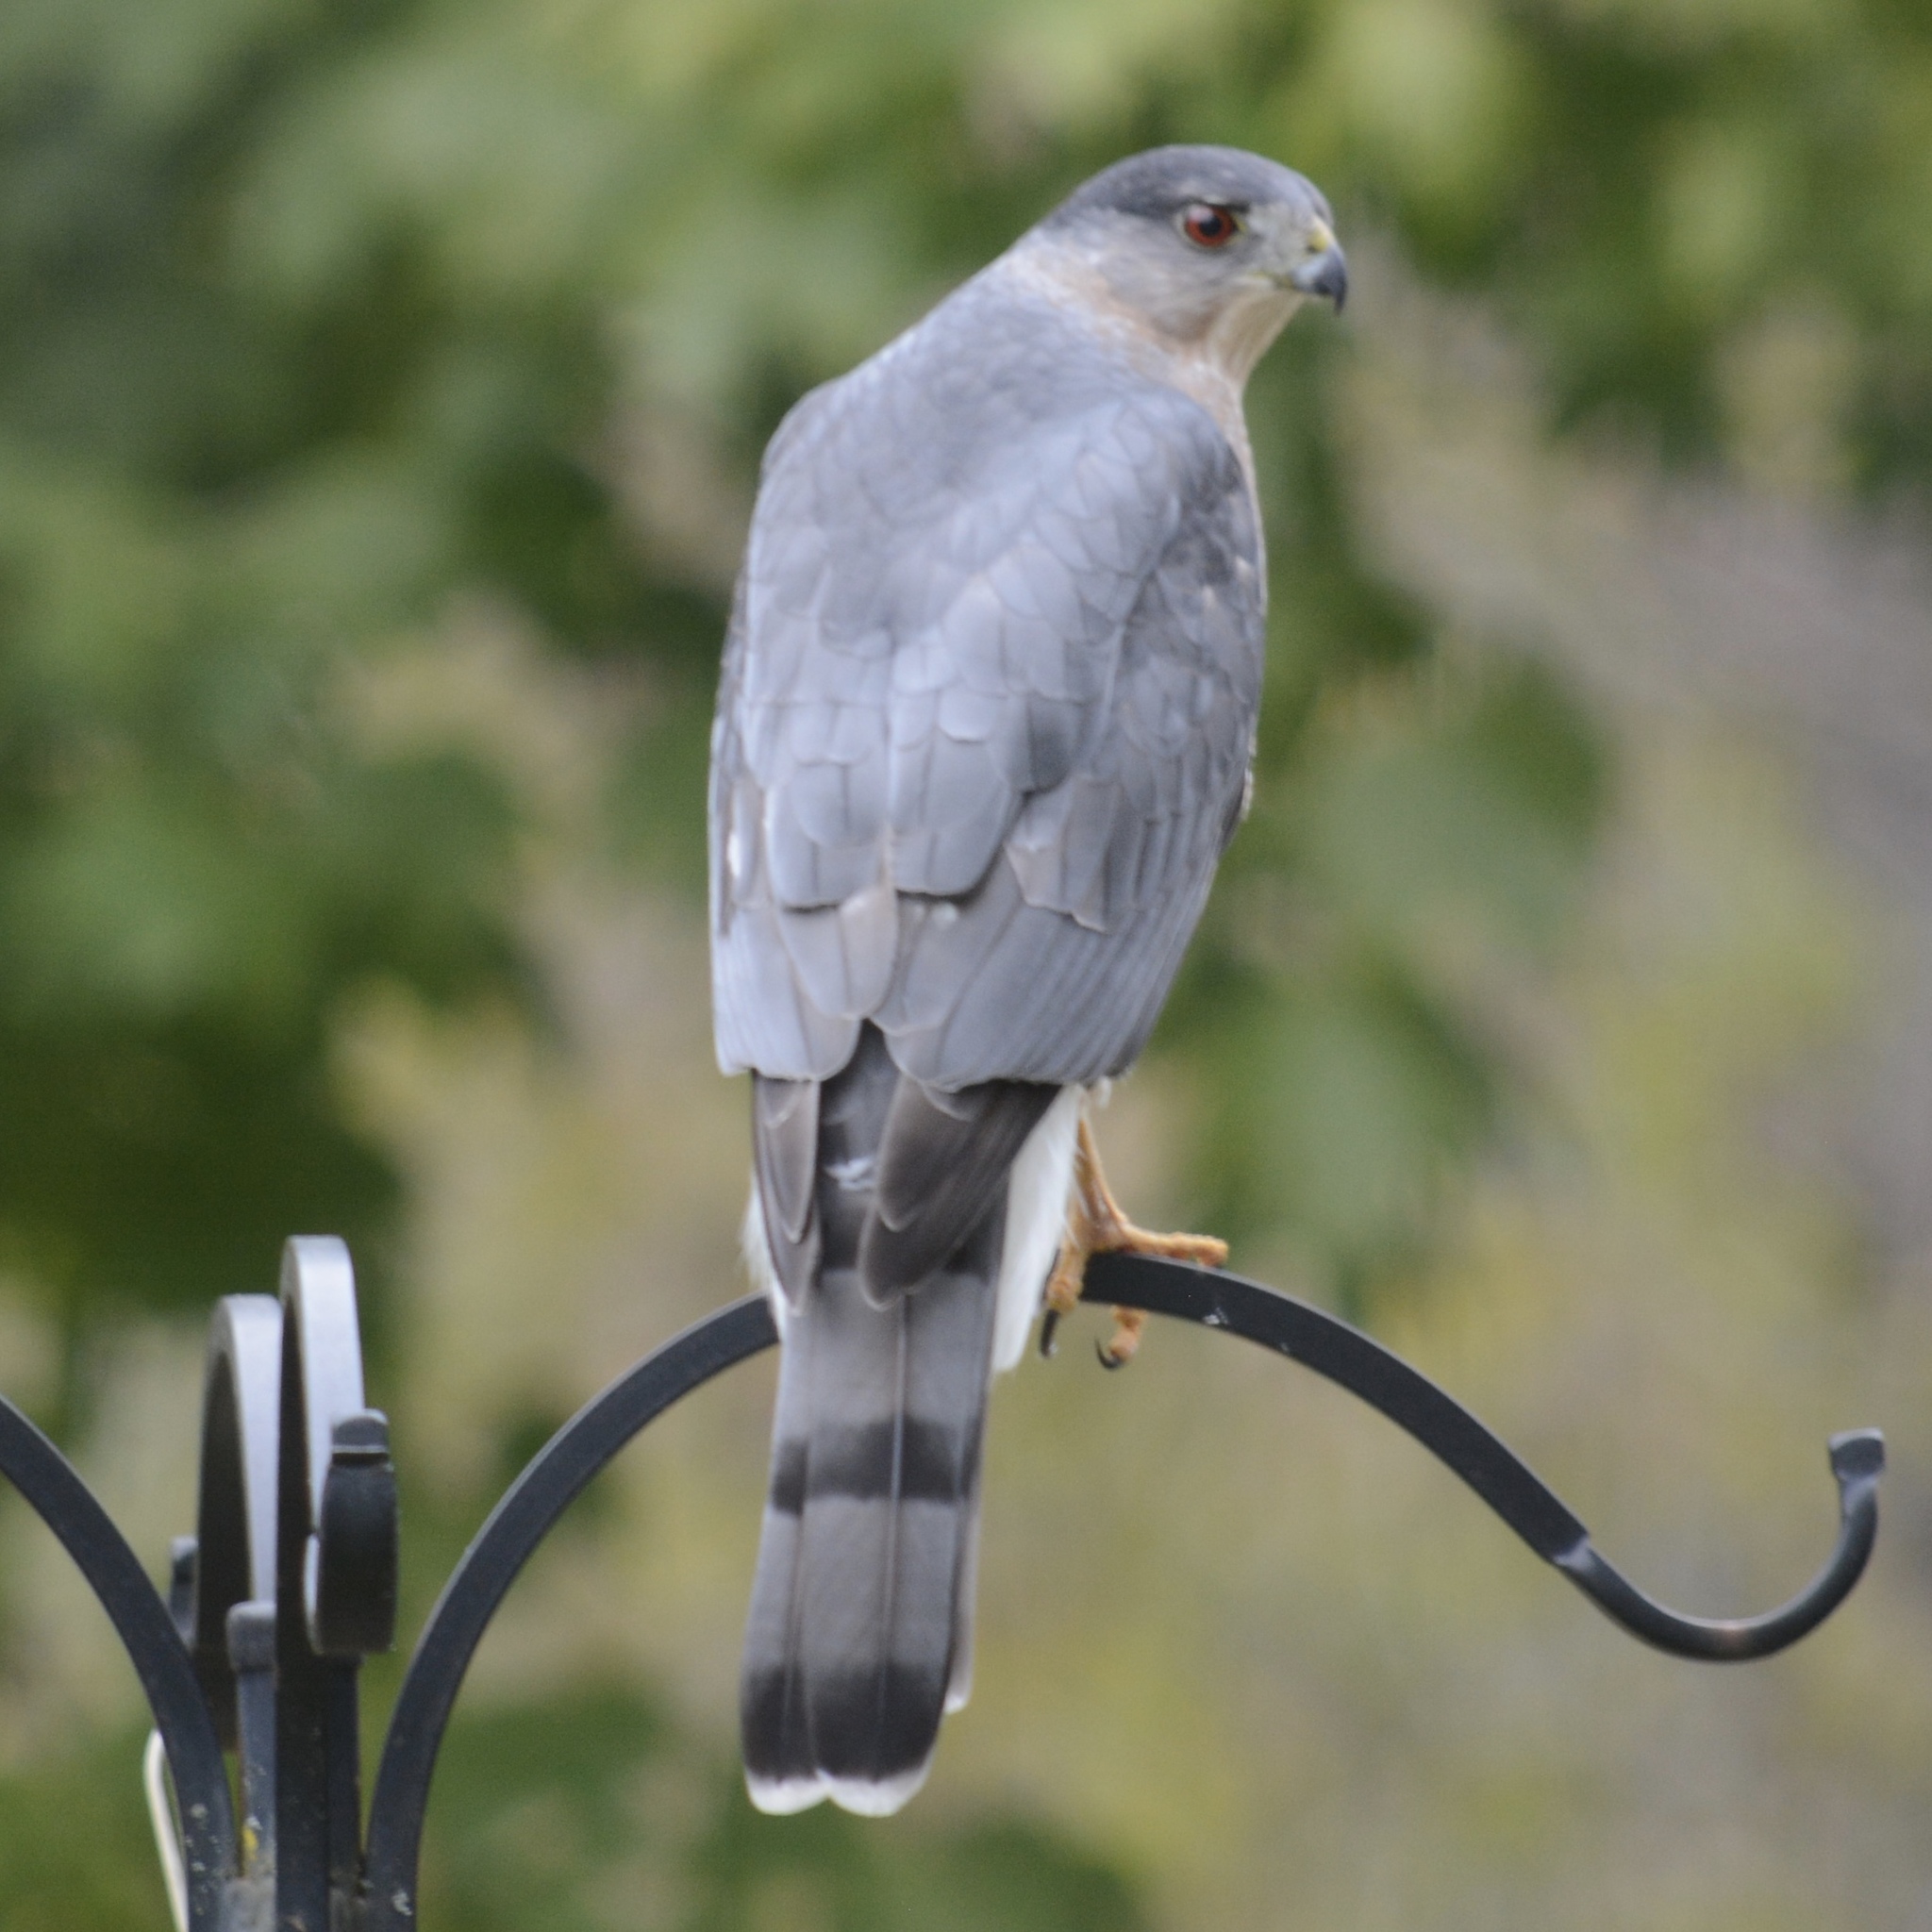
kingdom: Animalia
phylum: Chordata
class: Aves
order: Accipitriformes
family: Accipitridae
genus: Accipiter
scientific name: Accipiter cooperii
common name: Cooper's hawk
